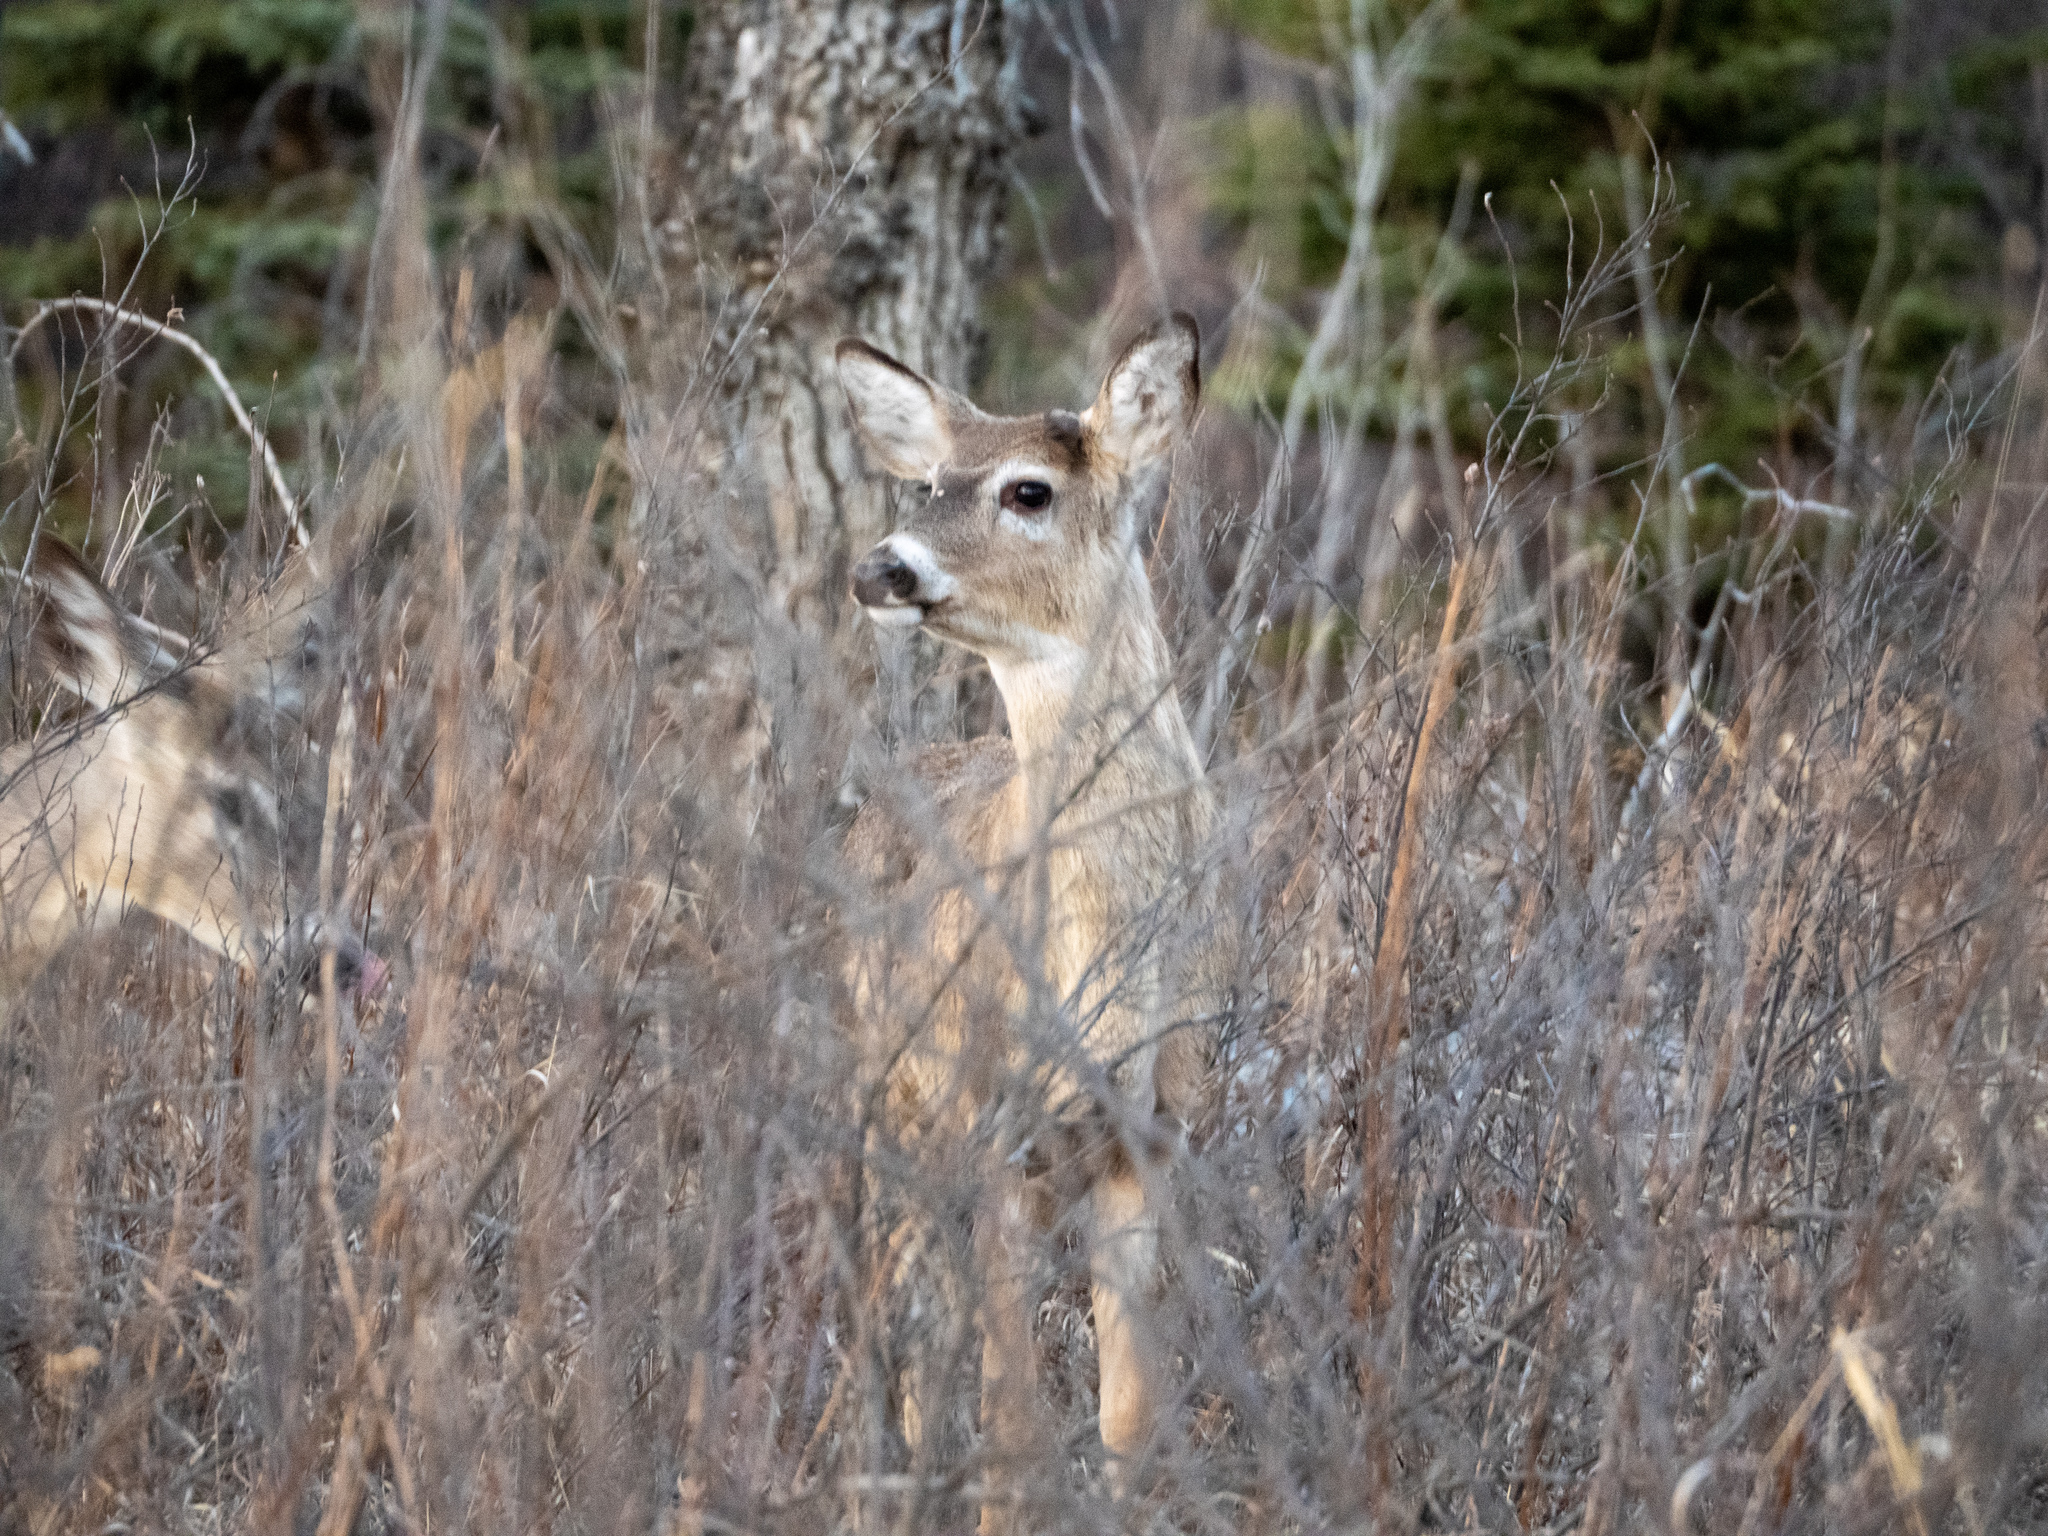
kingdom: Animalia
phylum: Chordata
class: Mammalia
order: Artiodactyla
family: Cervidae
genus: Odocoileus
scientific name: Odocoileus virginianus
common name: White-tailed deer
